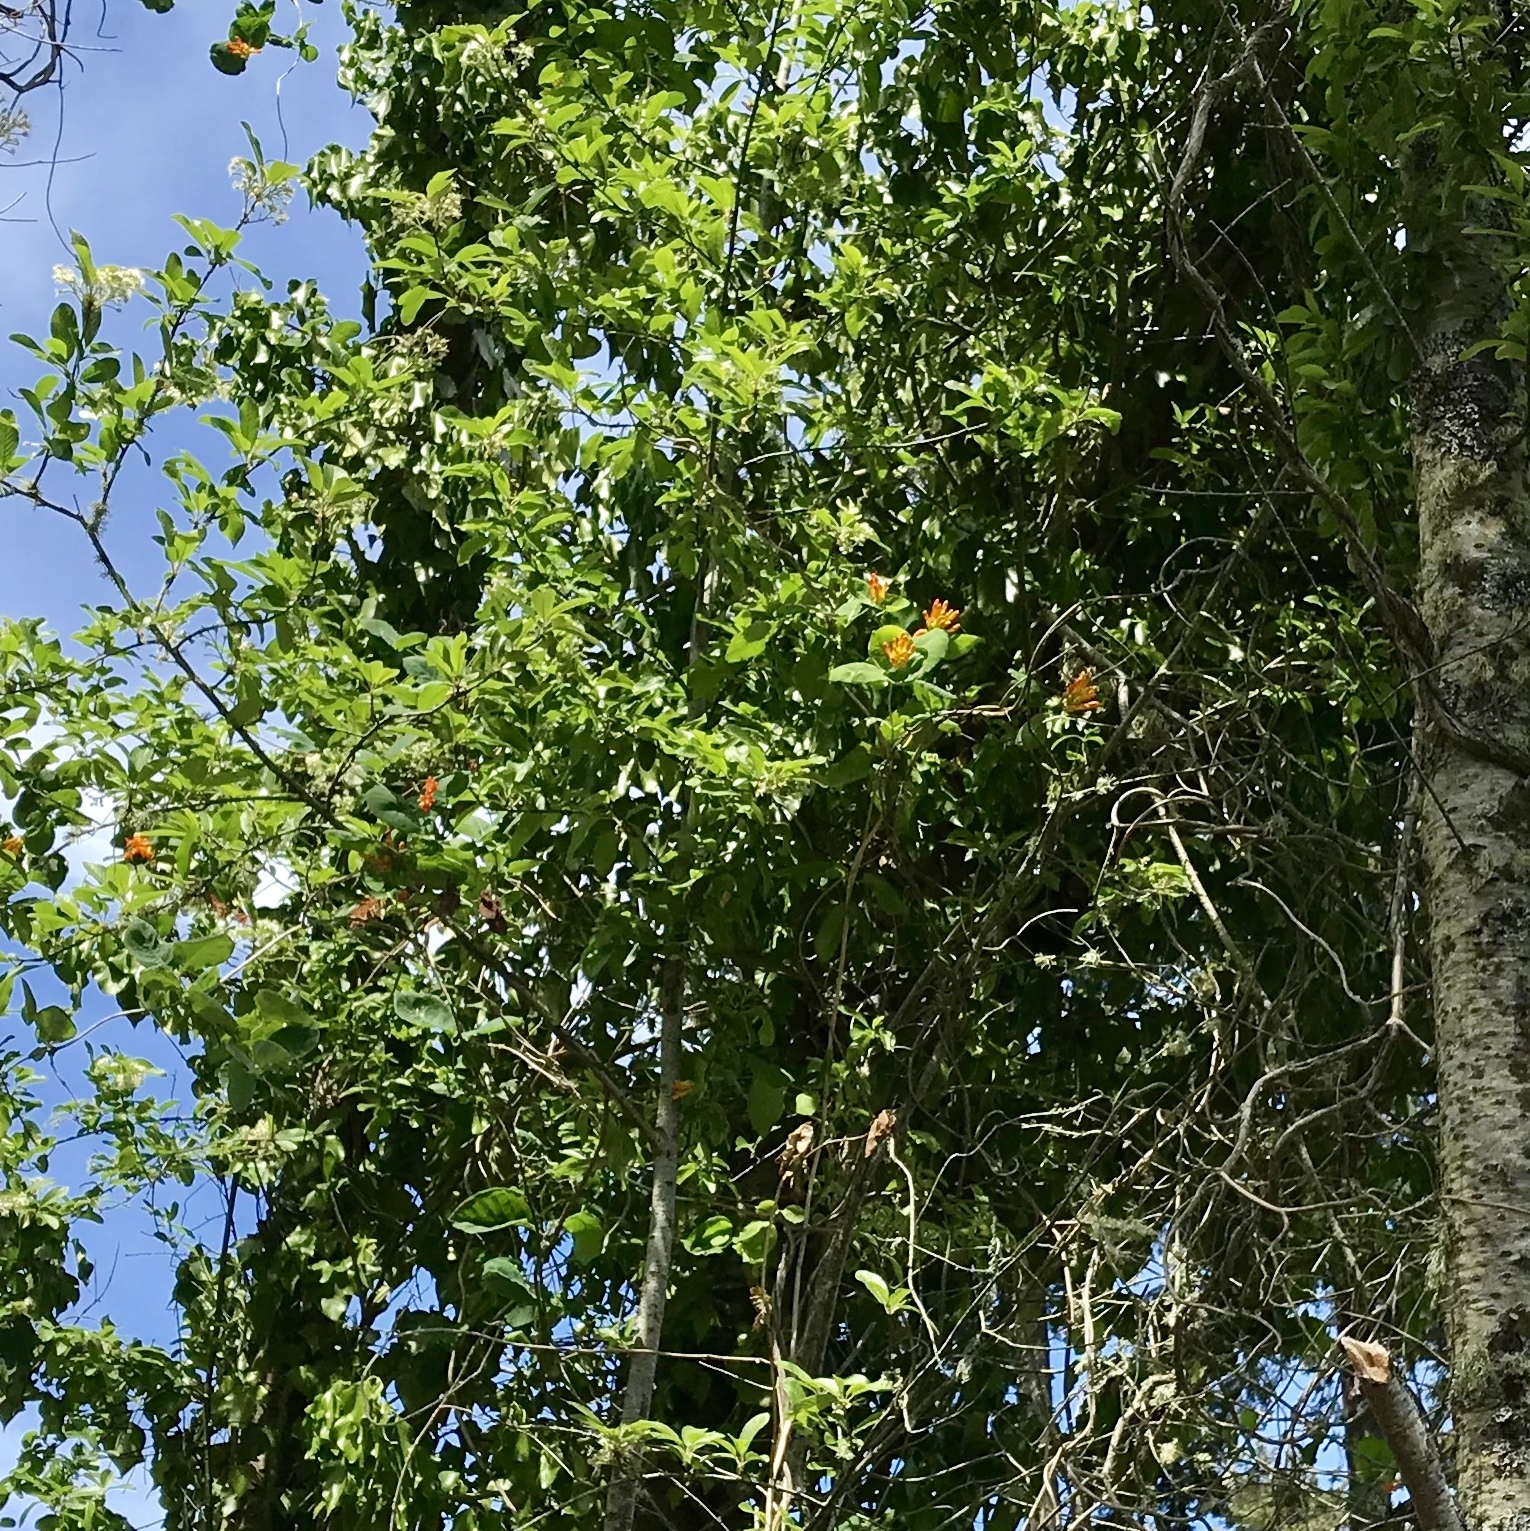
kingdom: Plantae
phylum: Tracheophyta
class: Magnoliopsida
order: Dipsacales
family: Caprifoliaceae
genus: Lonicera
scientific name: Lonicera ciliosa
